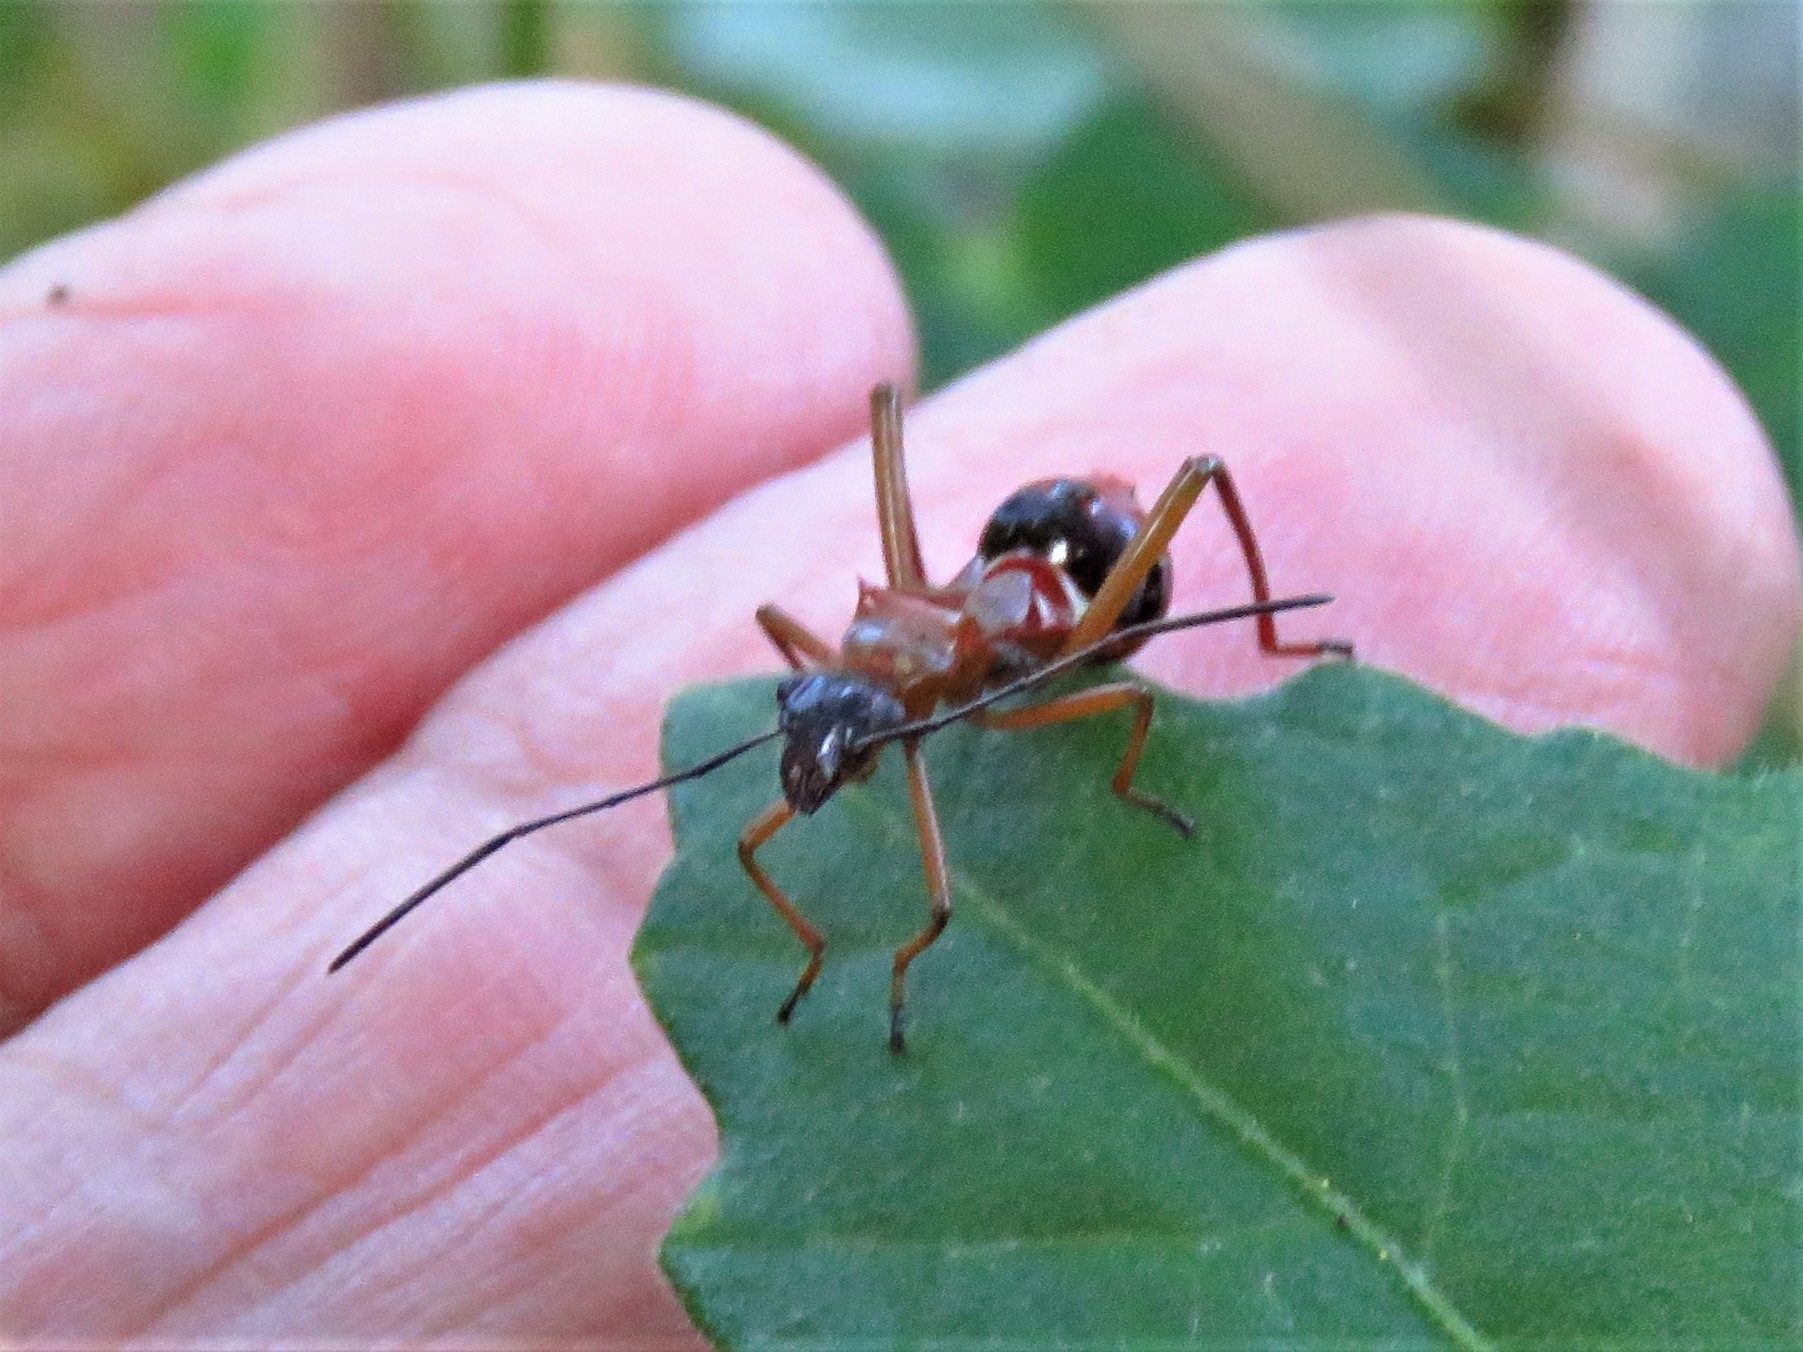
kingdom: Animalia
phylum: Arthropoda
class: Insecta
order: Hemiptera
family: Alydidae
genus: Hyalymenus
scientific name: Hyalymenus tarsatus
